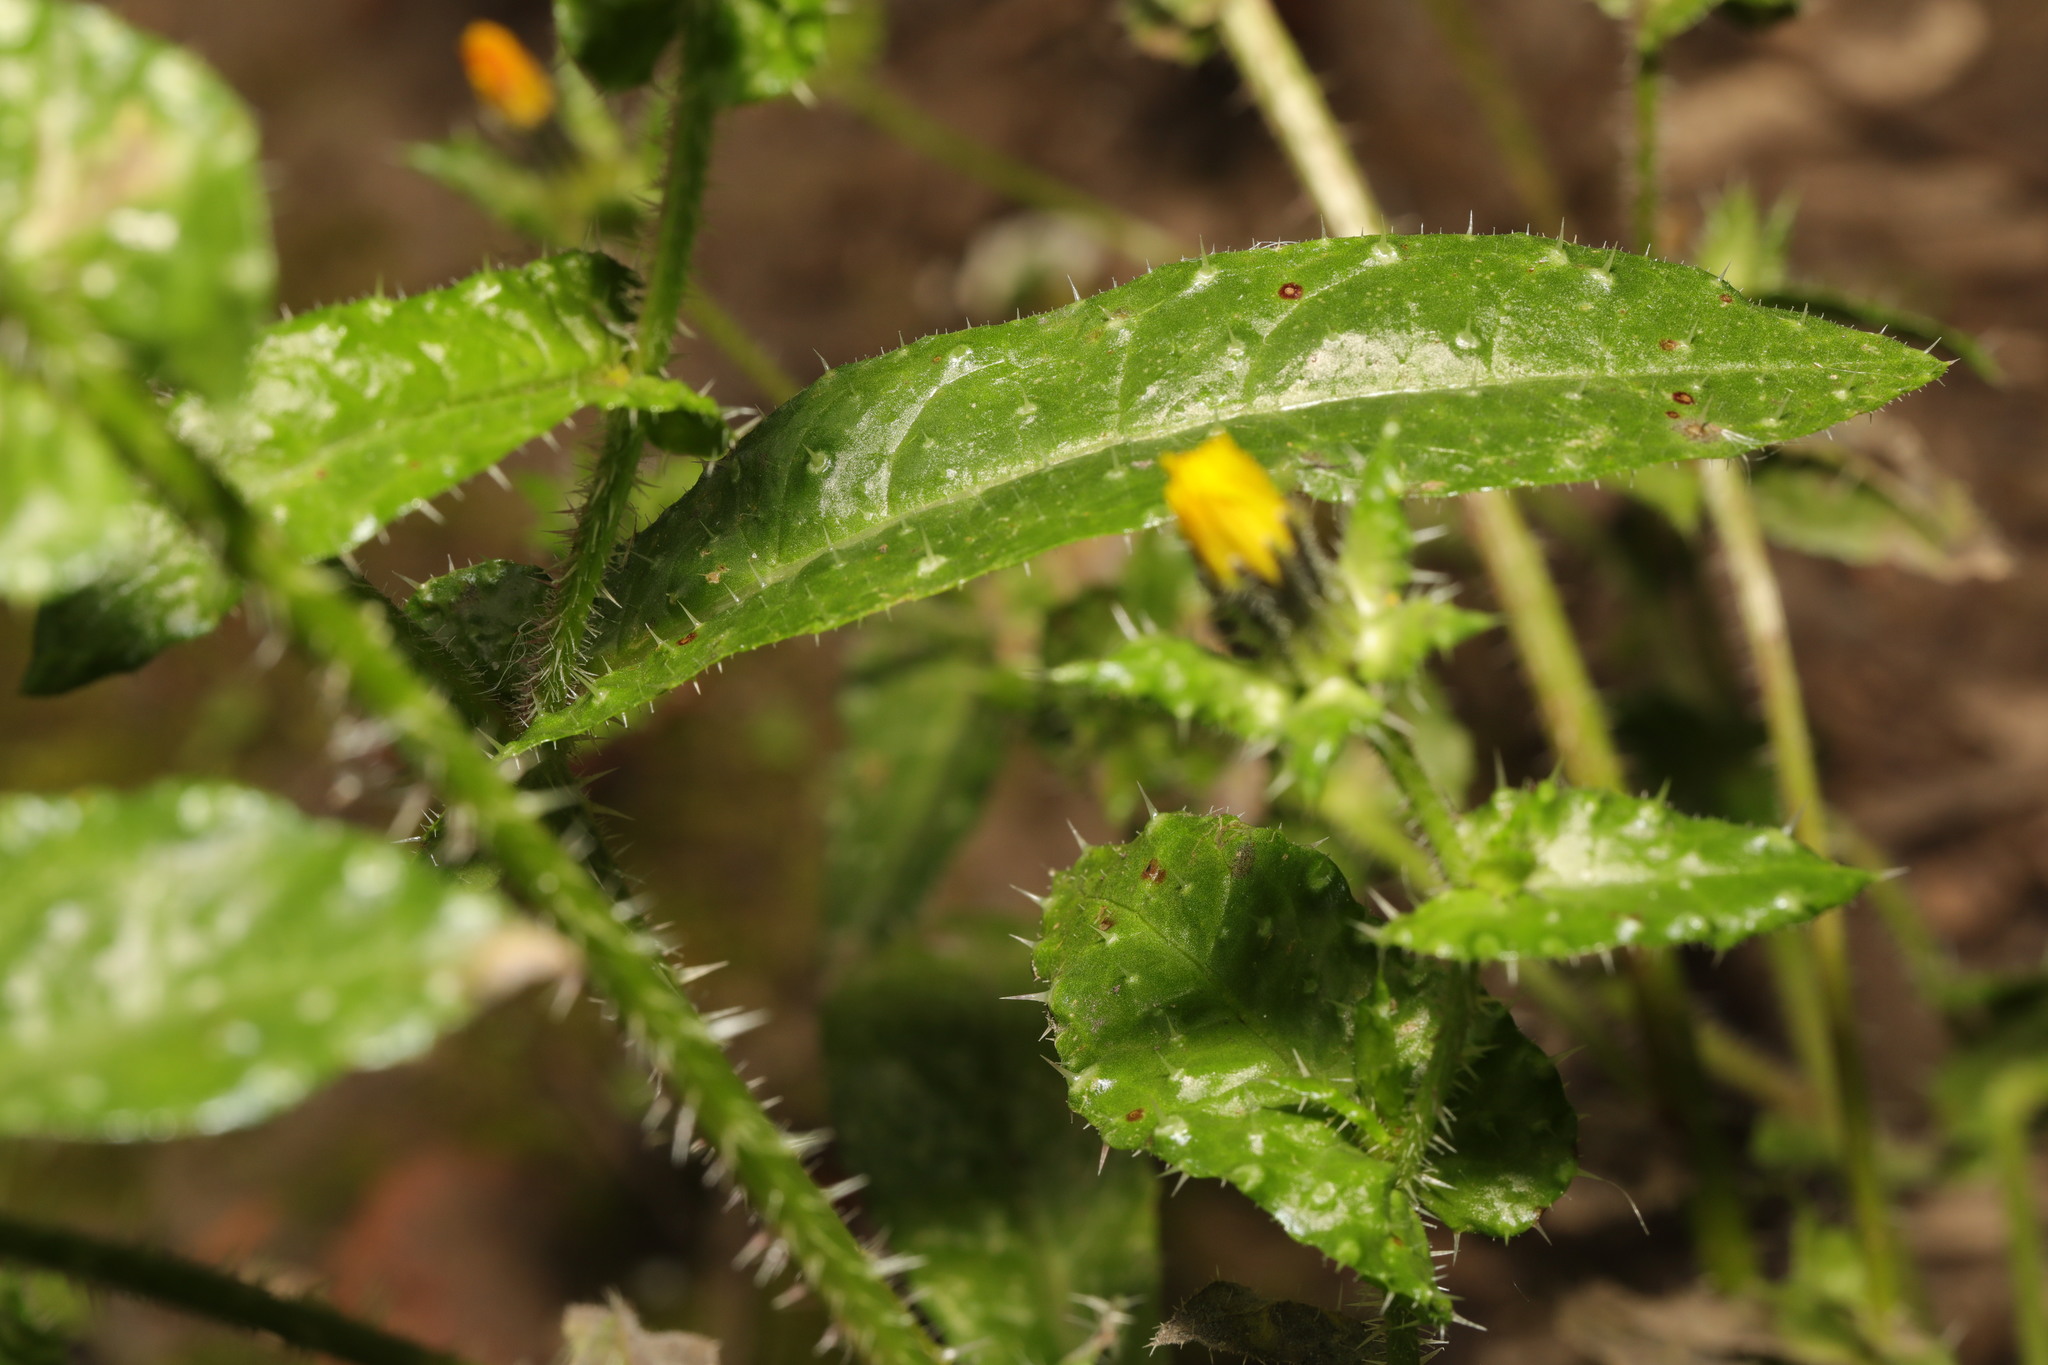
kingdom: Fungi
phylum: Ascomycota
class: Leotiomycetes
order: Helotiales
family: Erysiphaceae
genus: Golovinomyces
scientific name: Golovinomyces
